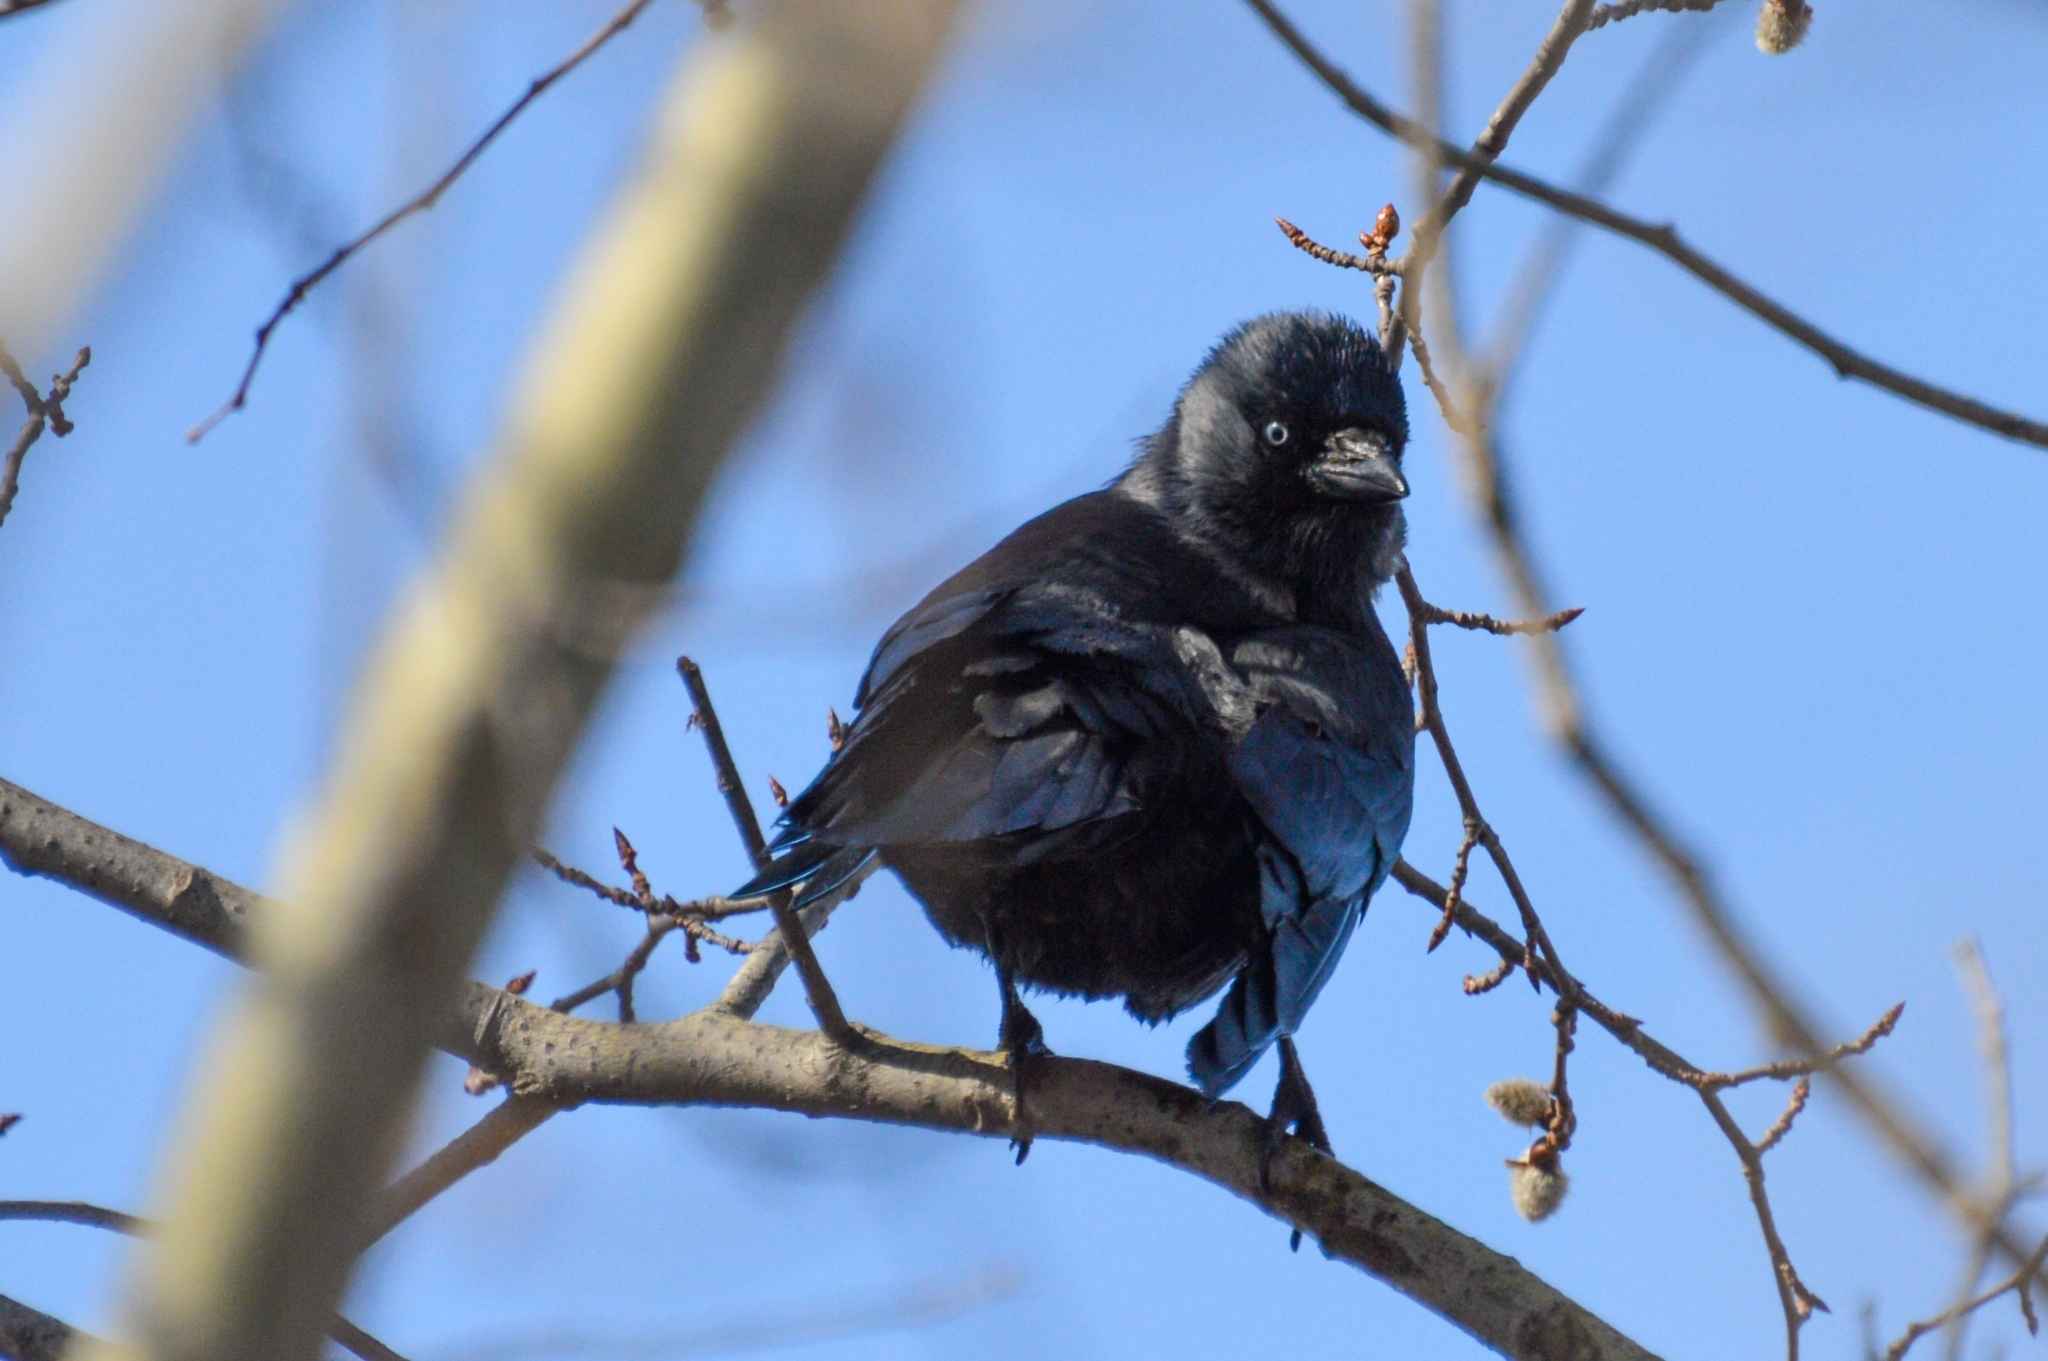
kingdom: Animalia
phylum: Chordata
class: Aves
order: Passeriformes
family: Corvidae
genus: Coloeus
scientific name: Coloeus monedula
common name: Western jackdaw
